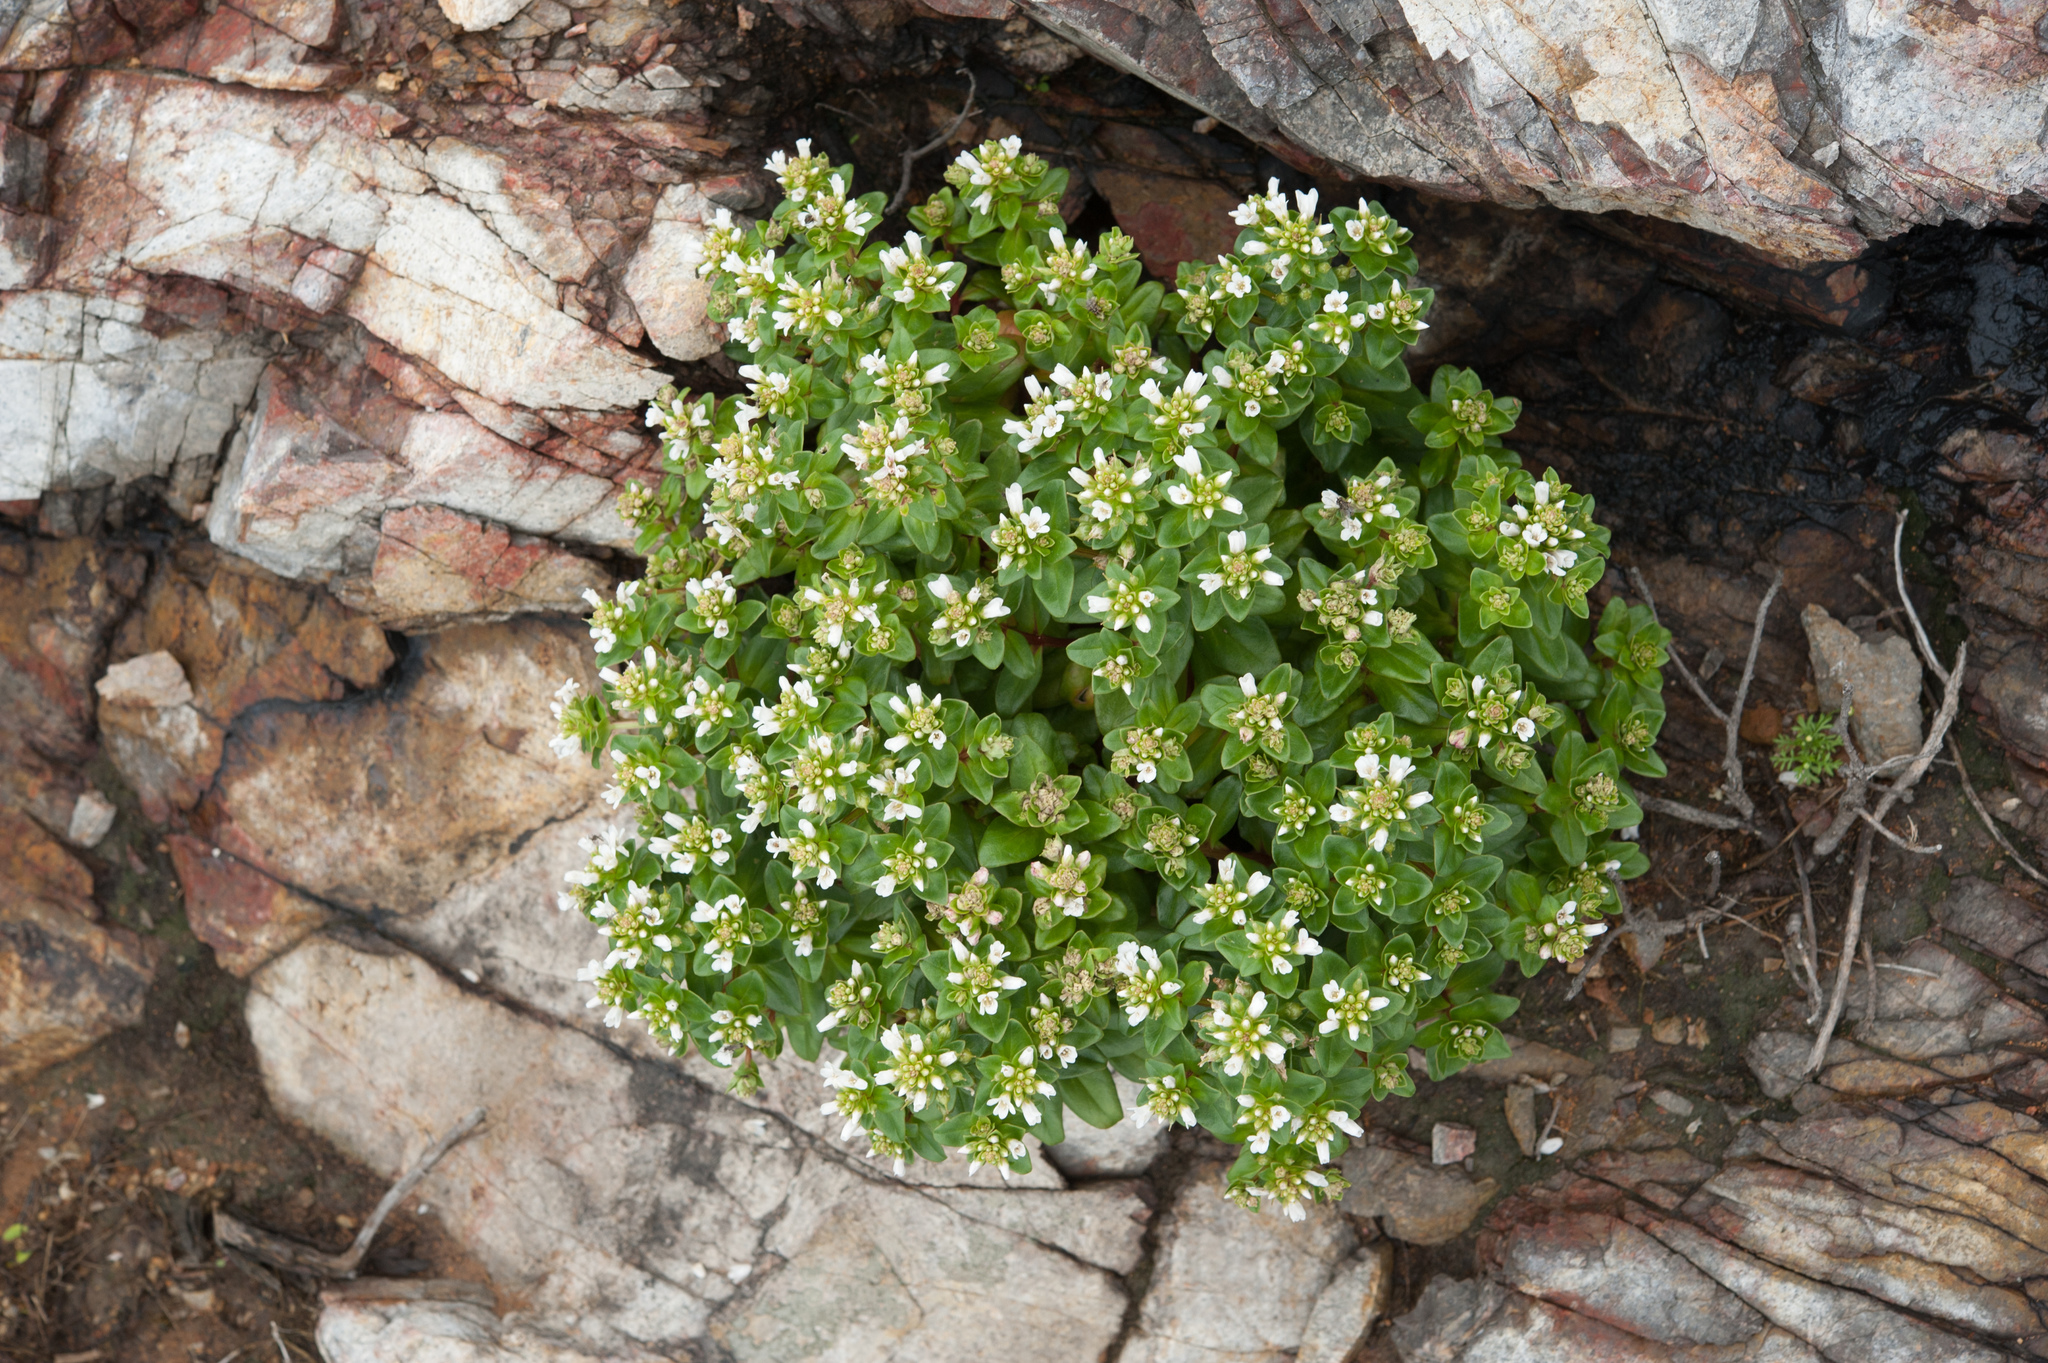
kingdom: Plantae
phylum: Tracheophyta
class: Magnoliopsida
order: Ericales
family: Primulaceae
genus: Lysimachia
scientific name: Lysimachia mauritiana
